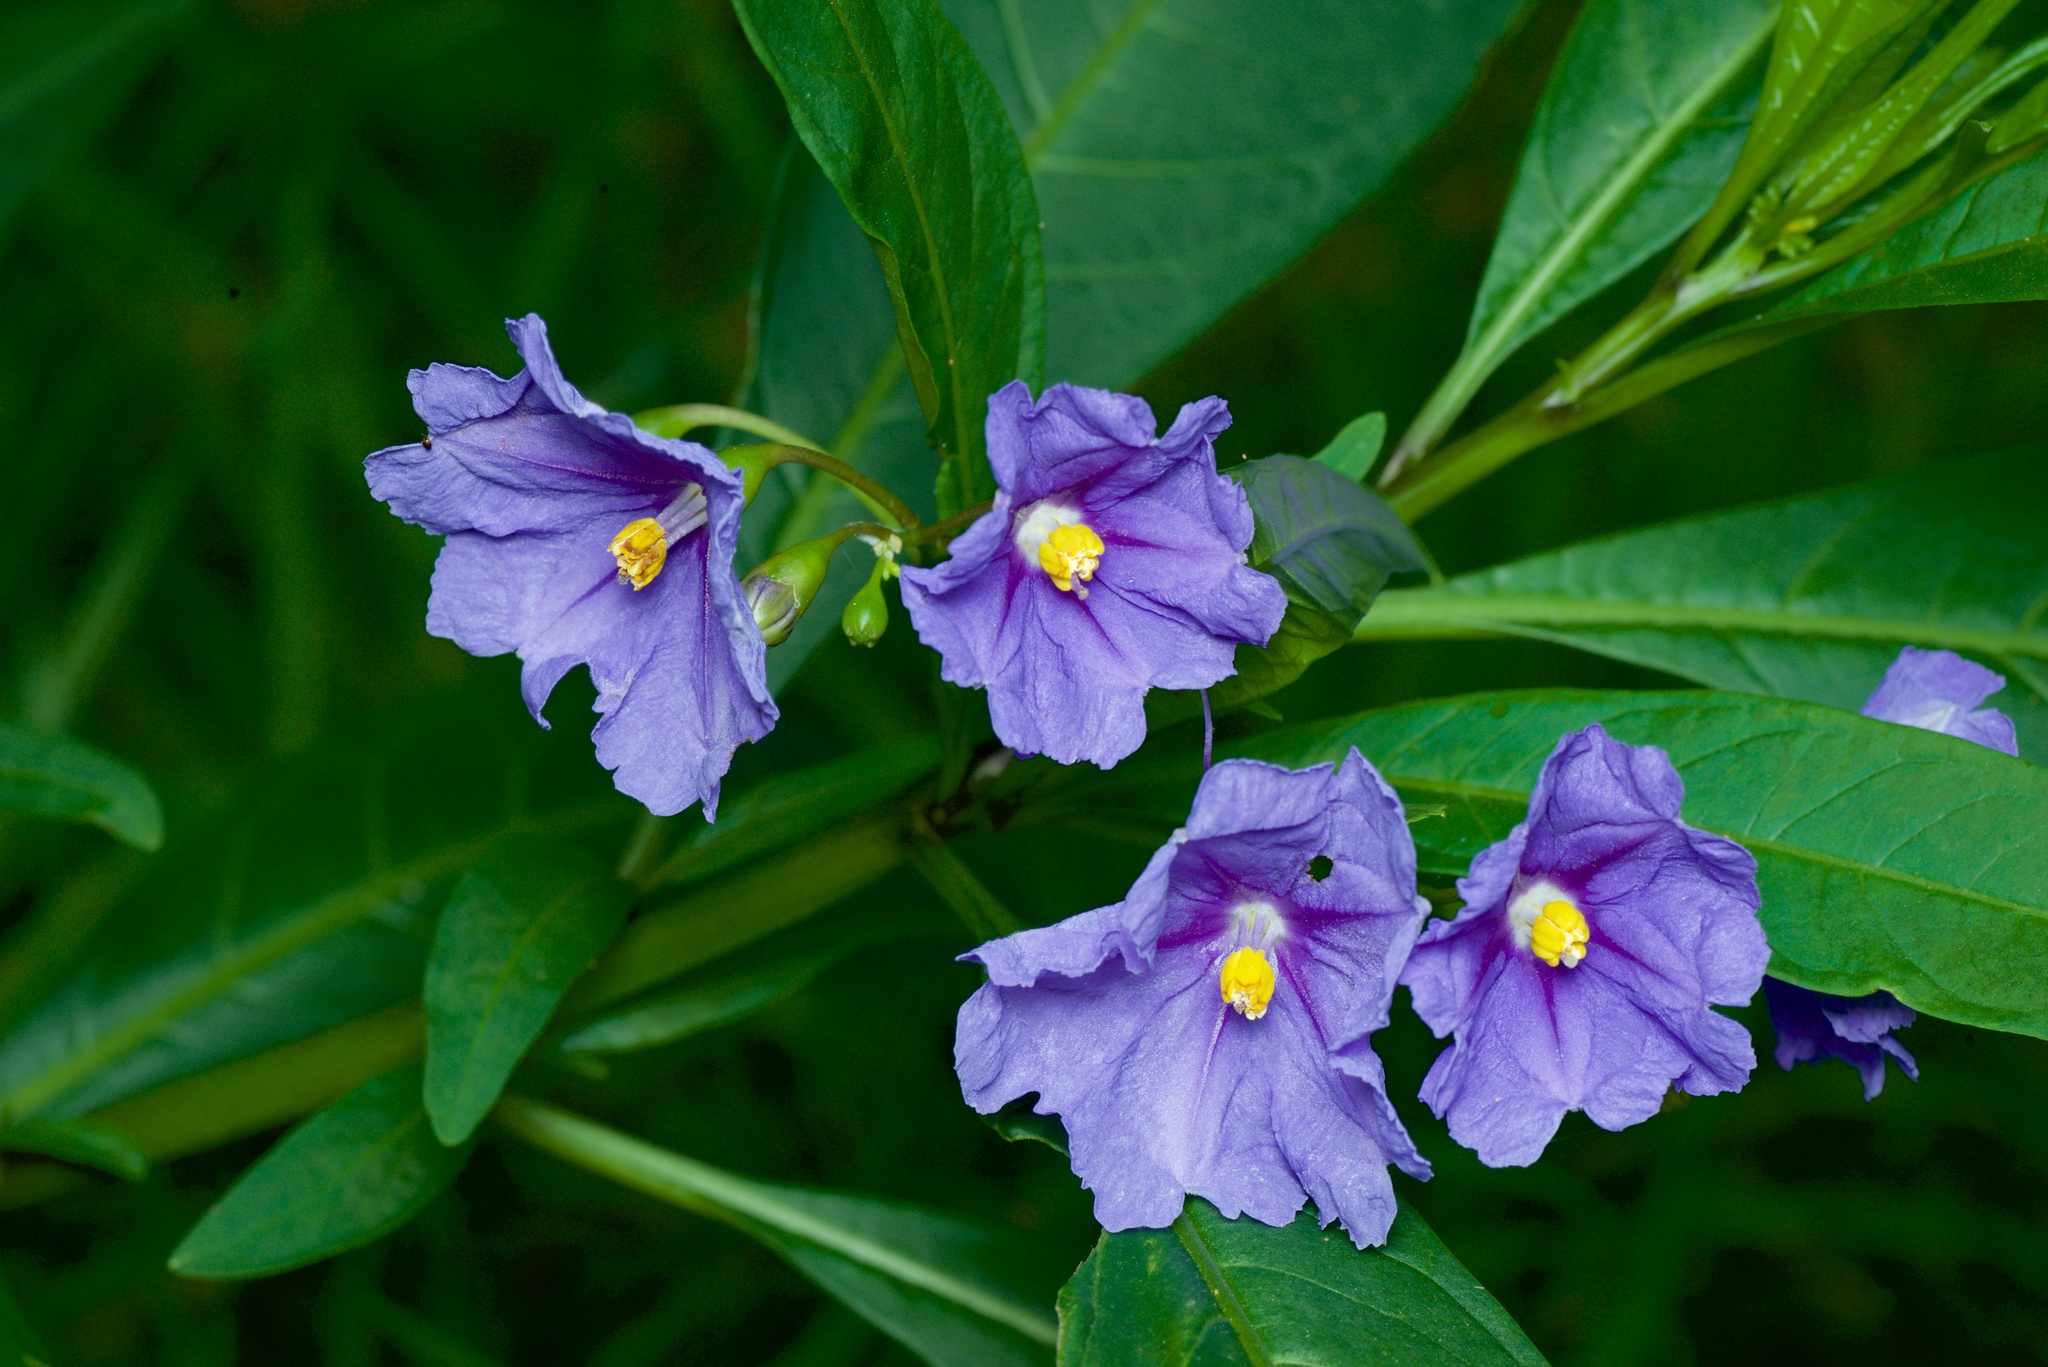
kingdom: Plantae
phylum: Tracheophyta
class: Magnoliopsida
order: Solanales
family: Solanaceae
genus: Solanum
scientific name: Solanum laciniatum
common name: Kangaroo-apple
